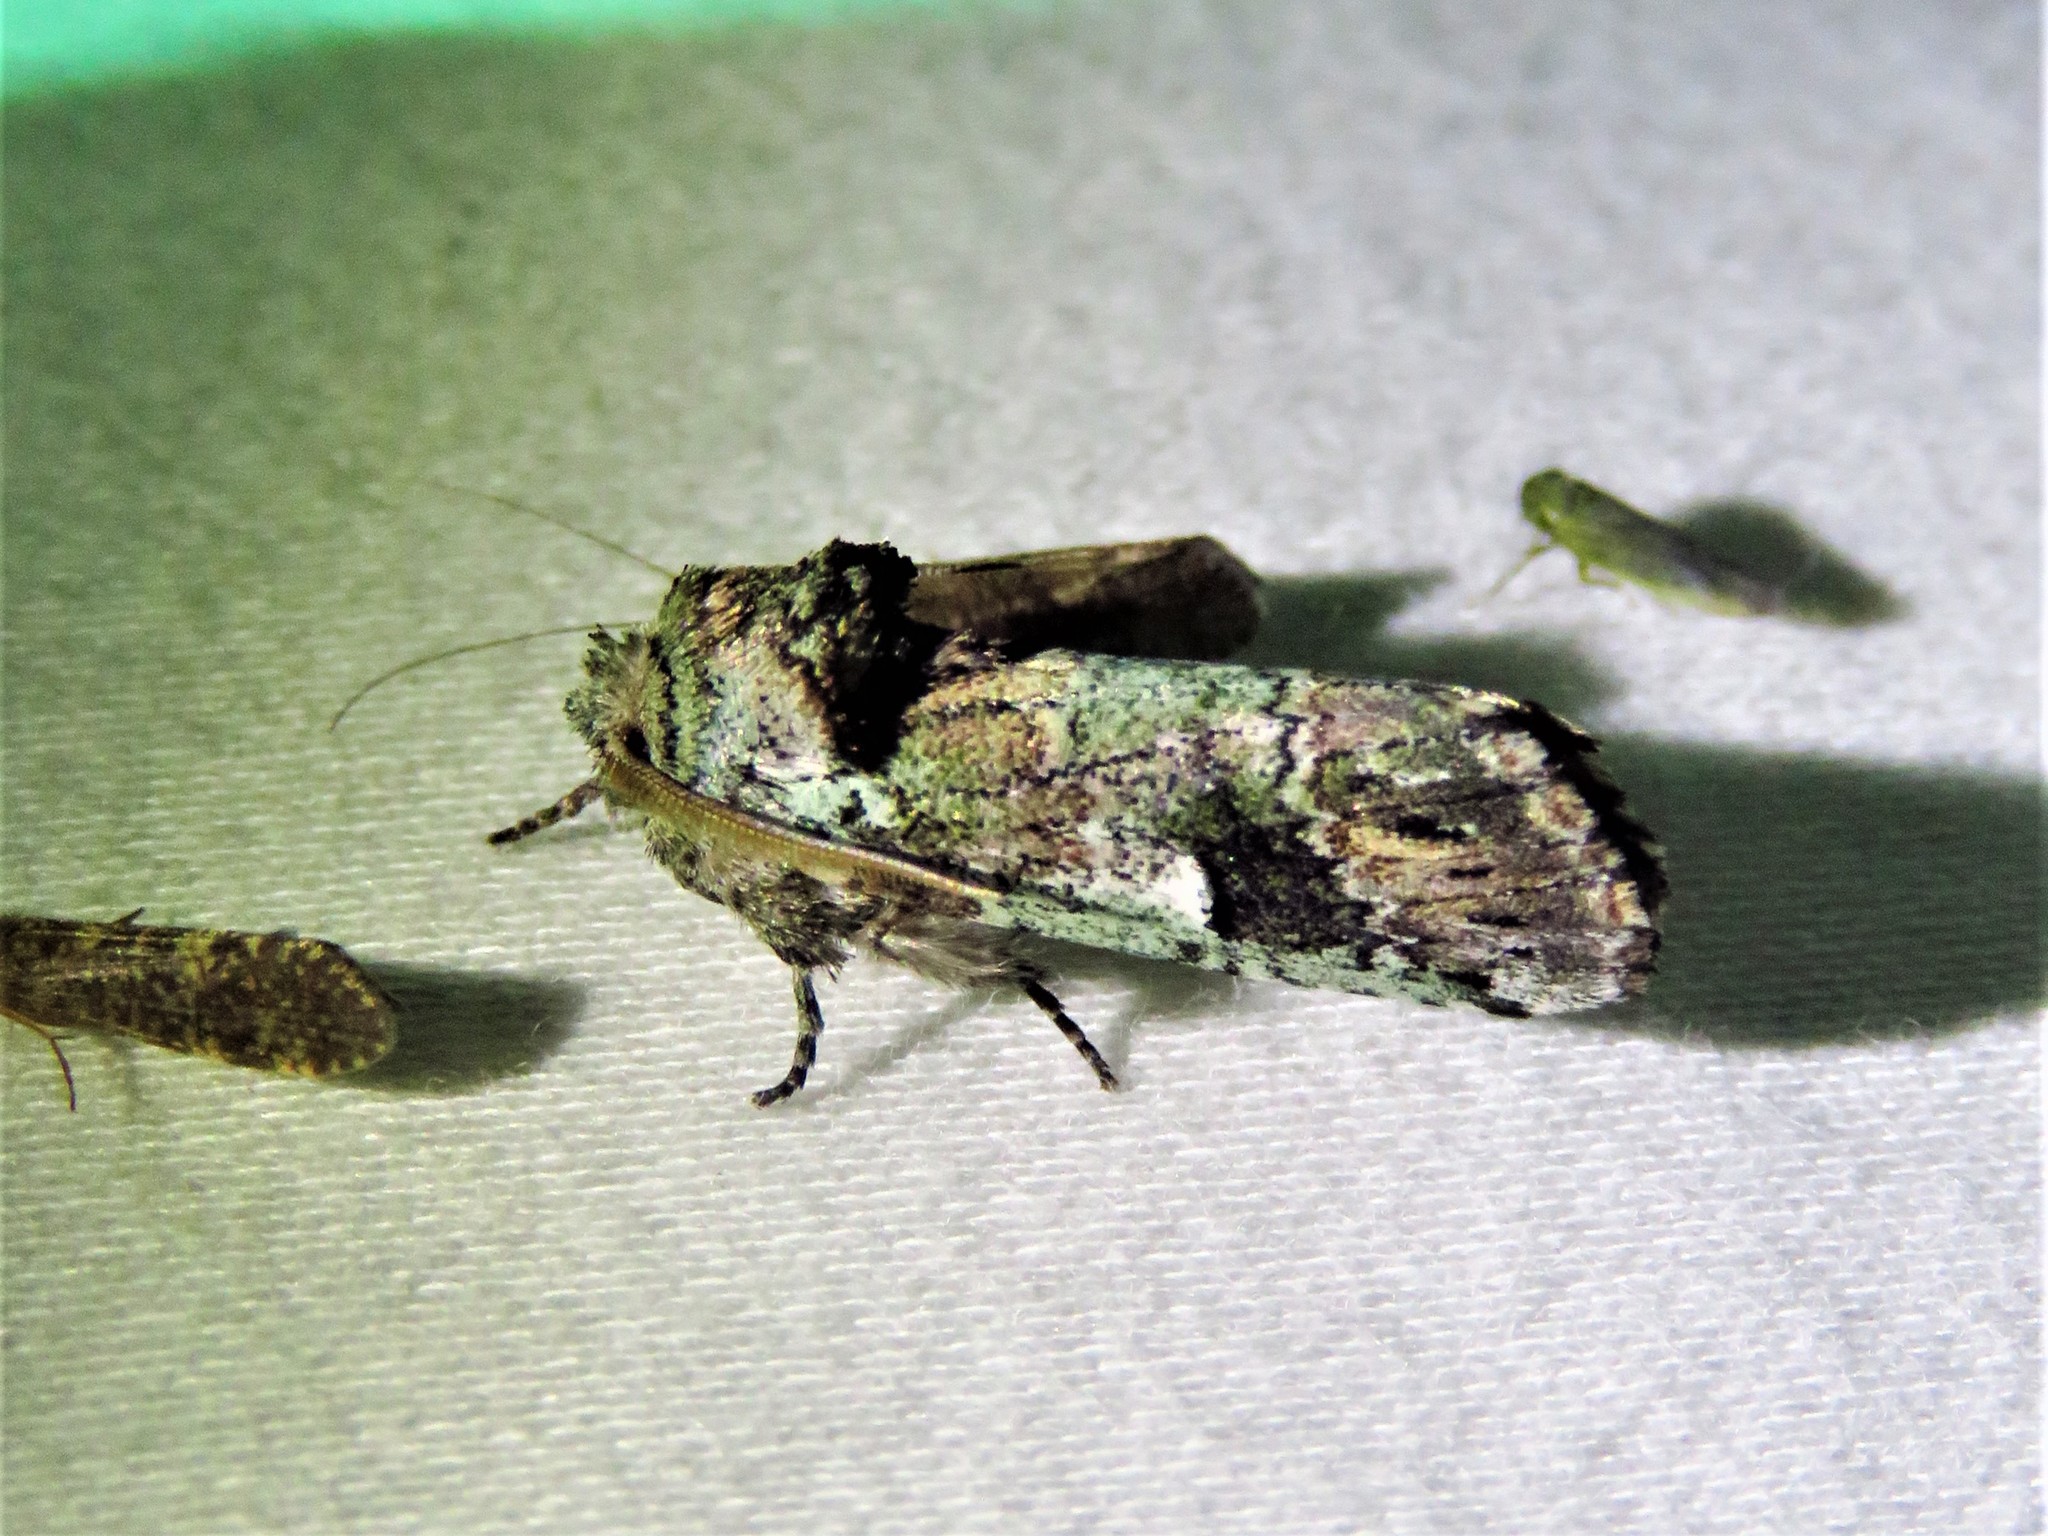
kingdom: Animalia
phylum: Arthropoda
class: Insecta
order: Lepidoptera
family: Notodontidae
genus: Schizura
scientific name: Schizura
